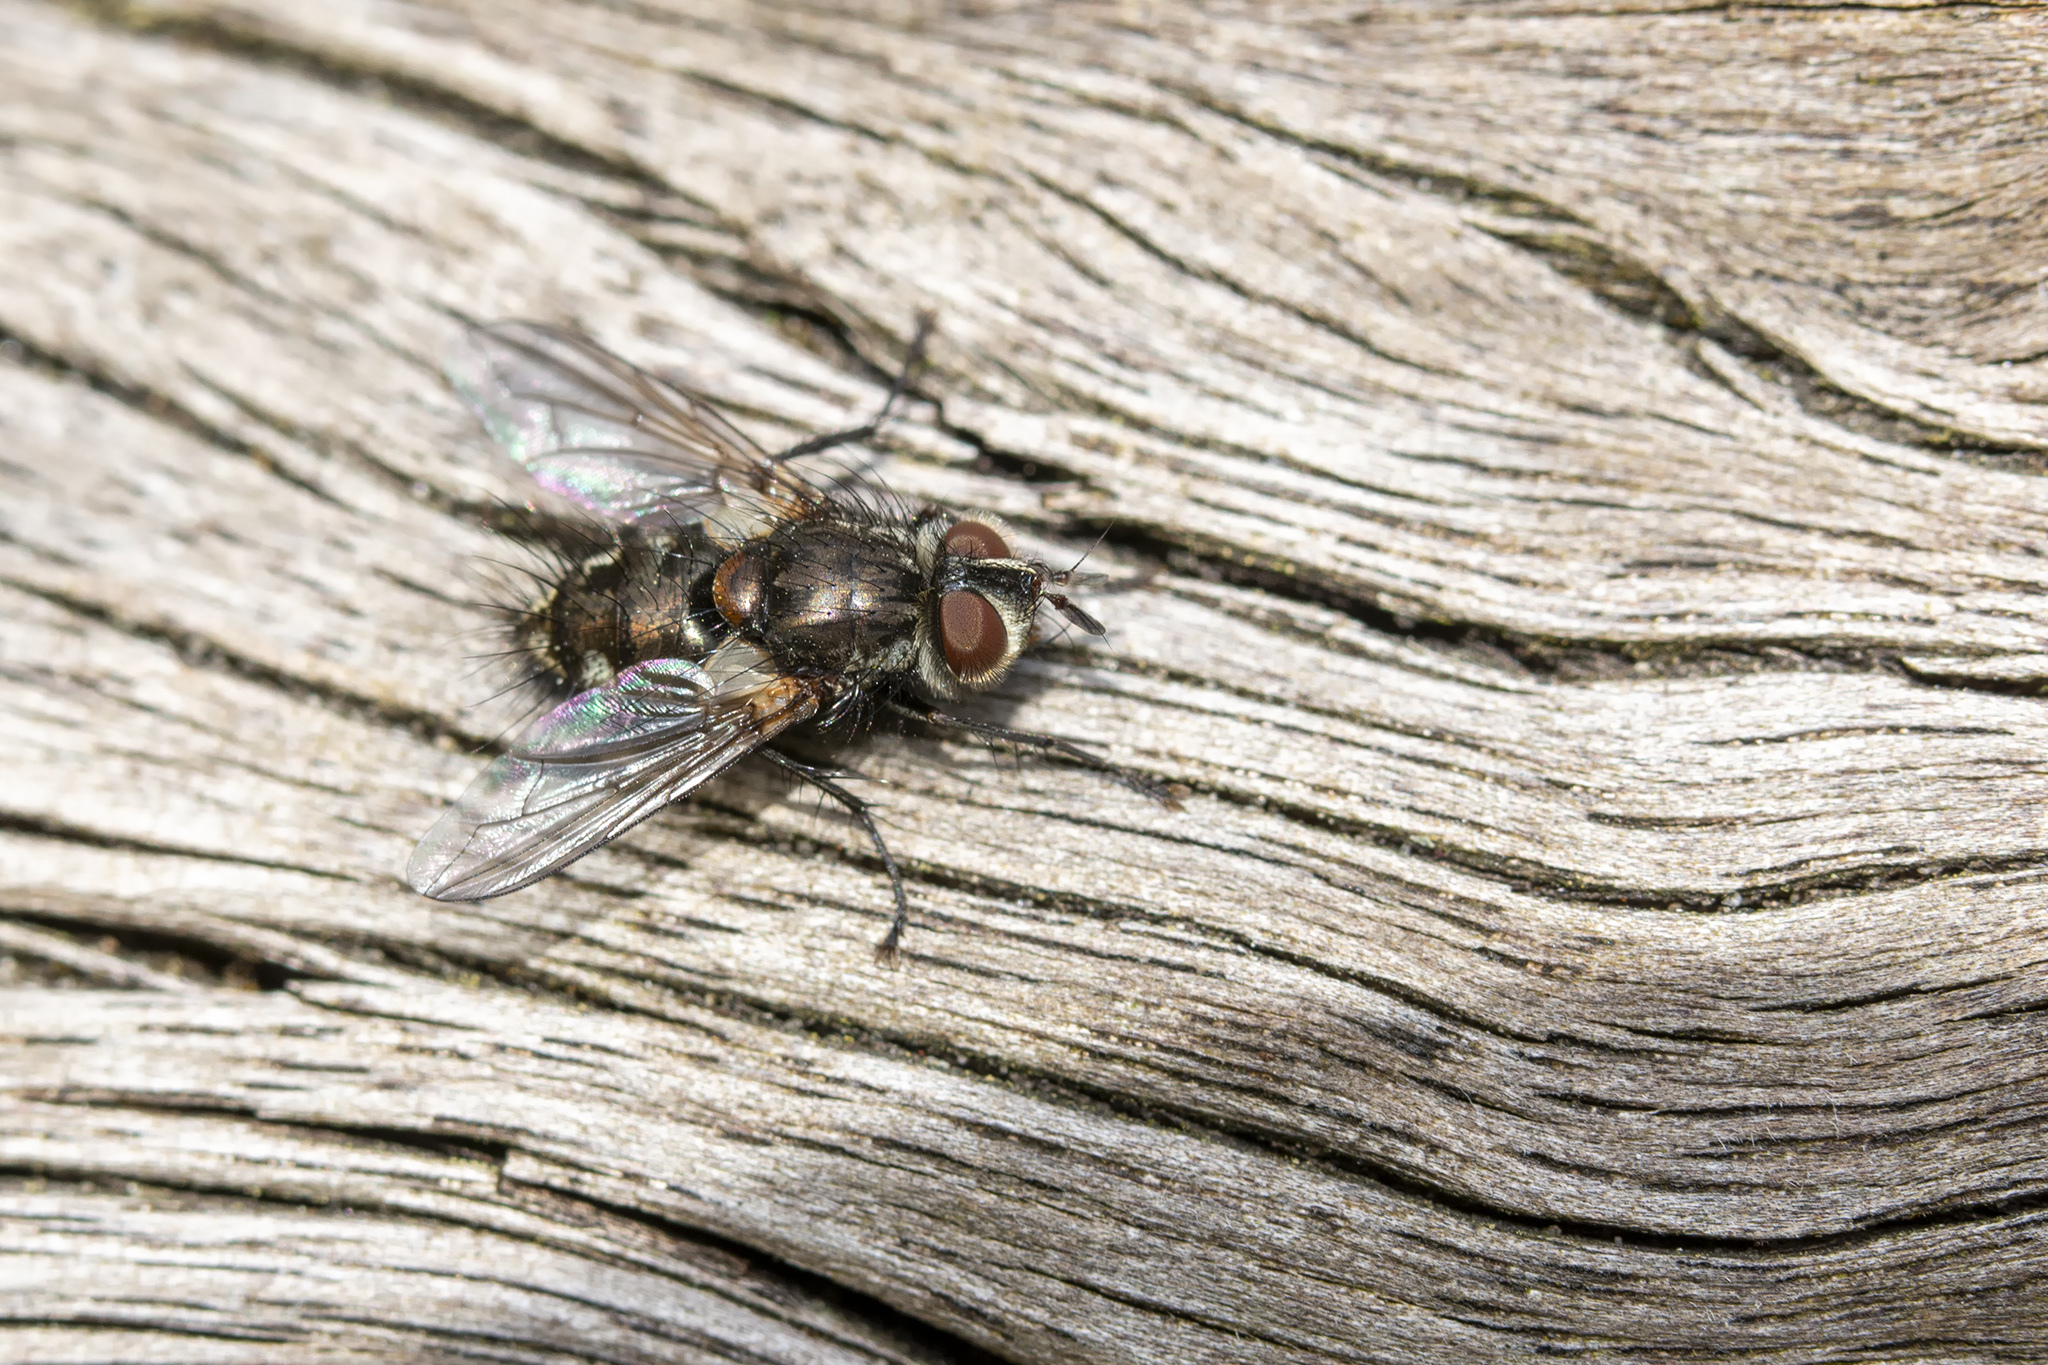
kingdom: Animalia
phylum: Arthropoda
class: Insecta
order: Diptera
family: Tachinidae
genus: Smidtia
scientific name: Smidtia conspersa
